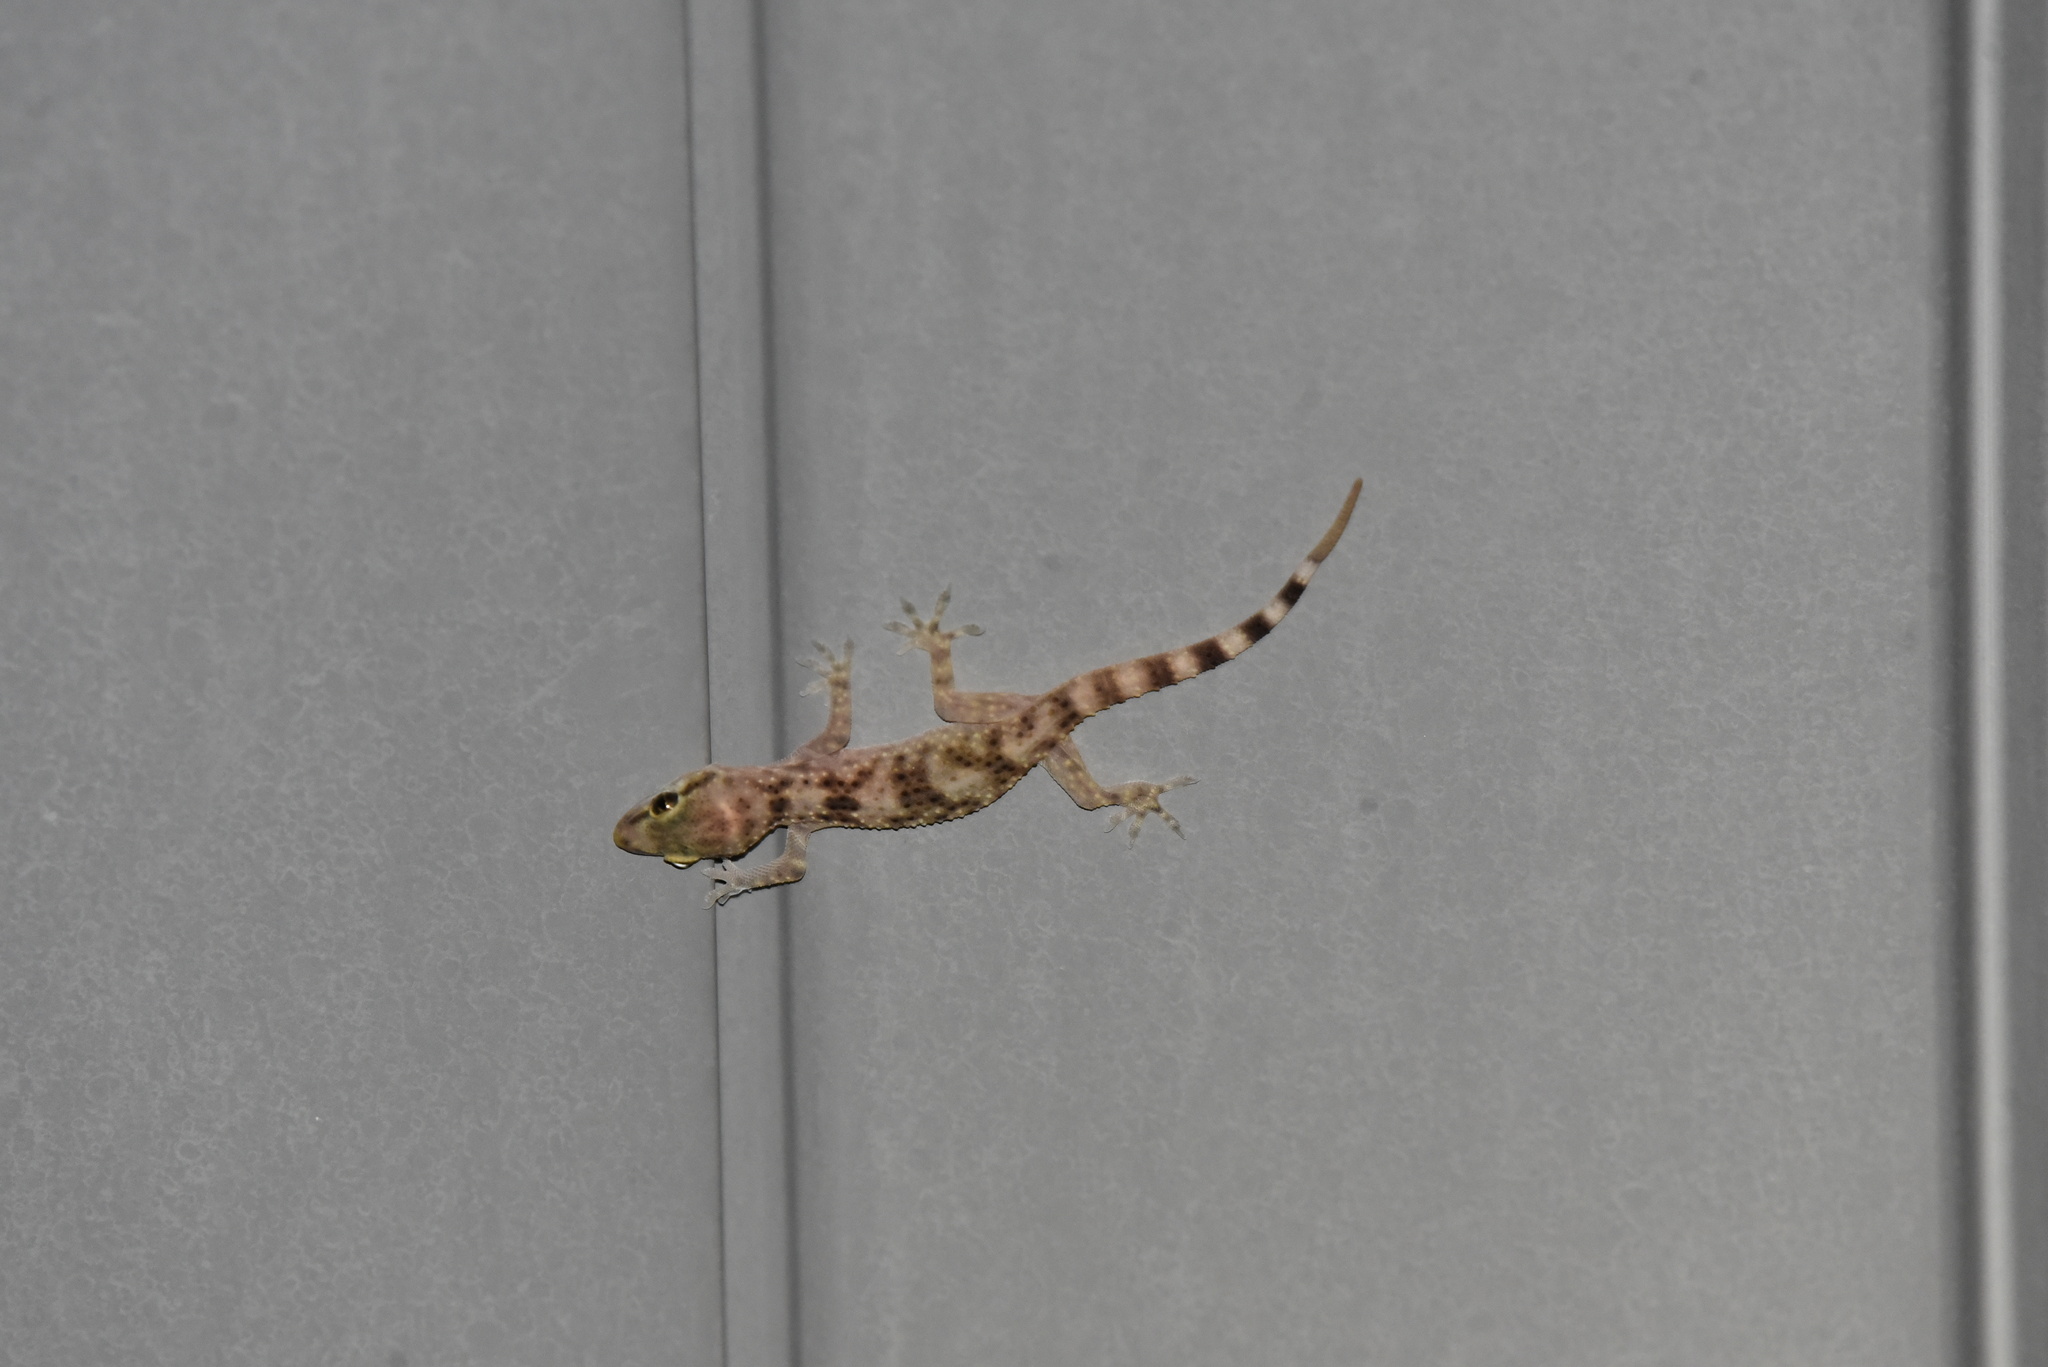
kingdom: Animalia
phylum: Chordata
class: Squamata
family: Gekkonidae
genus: Hemidactylus
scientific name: Hemidactylus turcicus
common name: Turkish gecko
